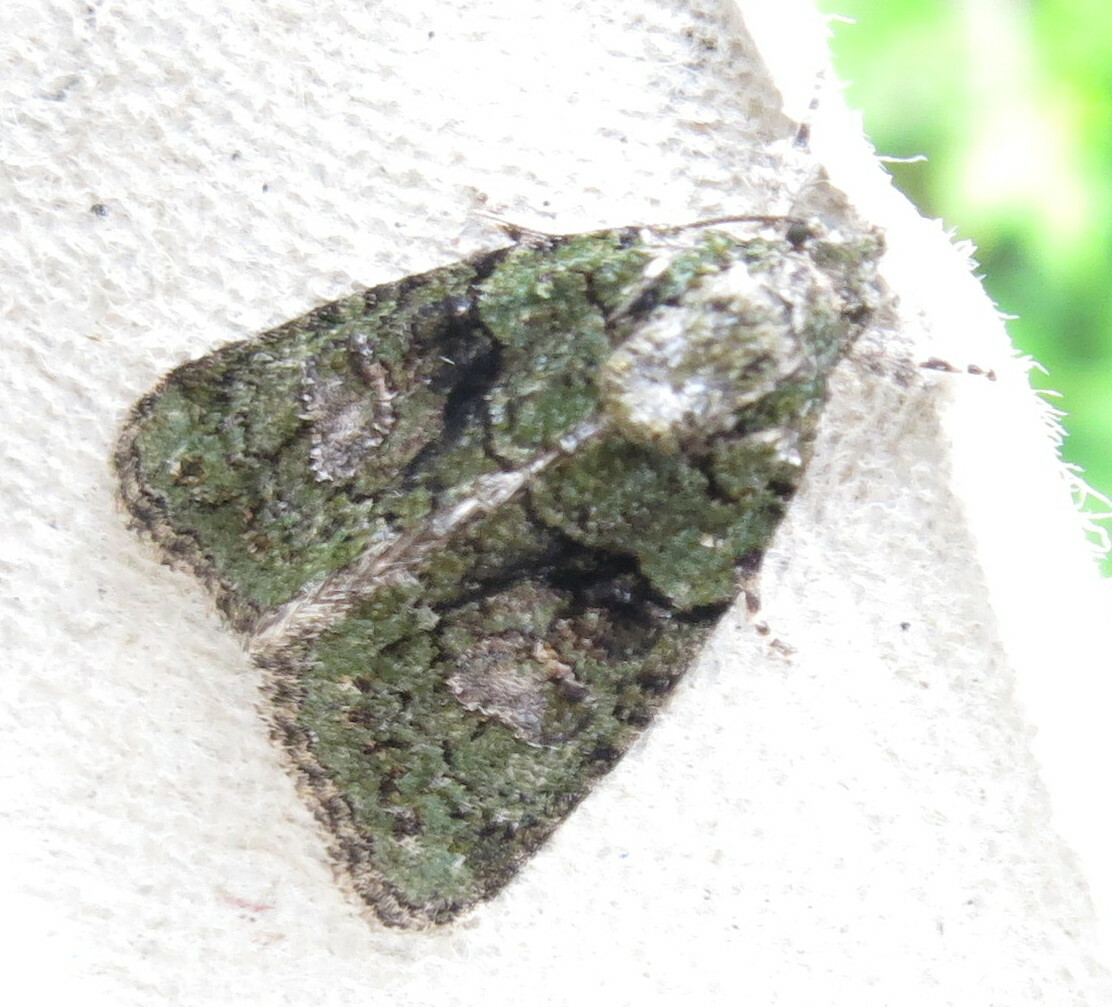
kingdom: Animalia
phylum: Arthropoda
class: Insecta
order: Lepidoptera
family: Noctuidae
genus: Cryphia
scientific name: Cryphia algae
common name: Tree-lichen beauty
